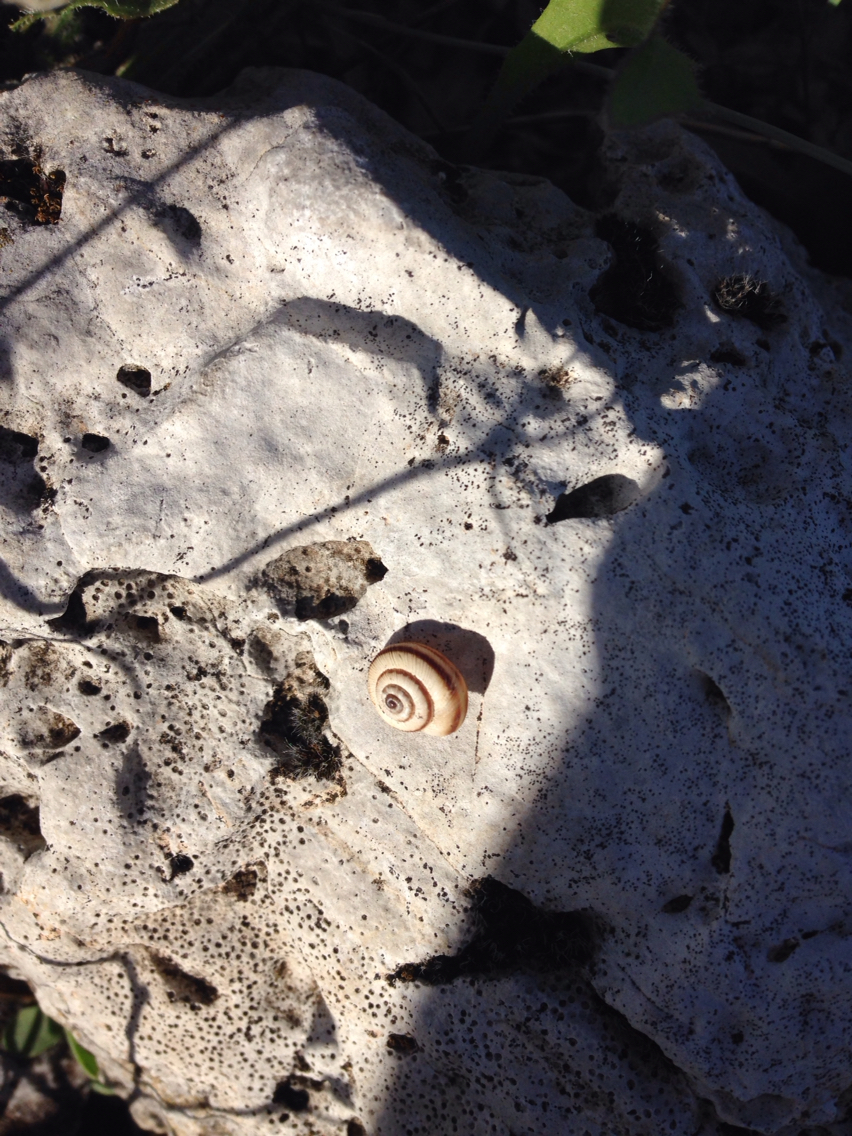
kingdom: Animalia
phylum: Mollusca
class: Gastropoda
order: Stylommatophora
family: Geomitridae
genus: Cernuella
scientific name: Cernuella cisalpina
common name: Maritime gardensnail
